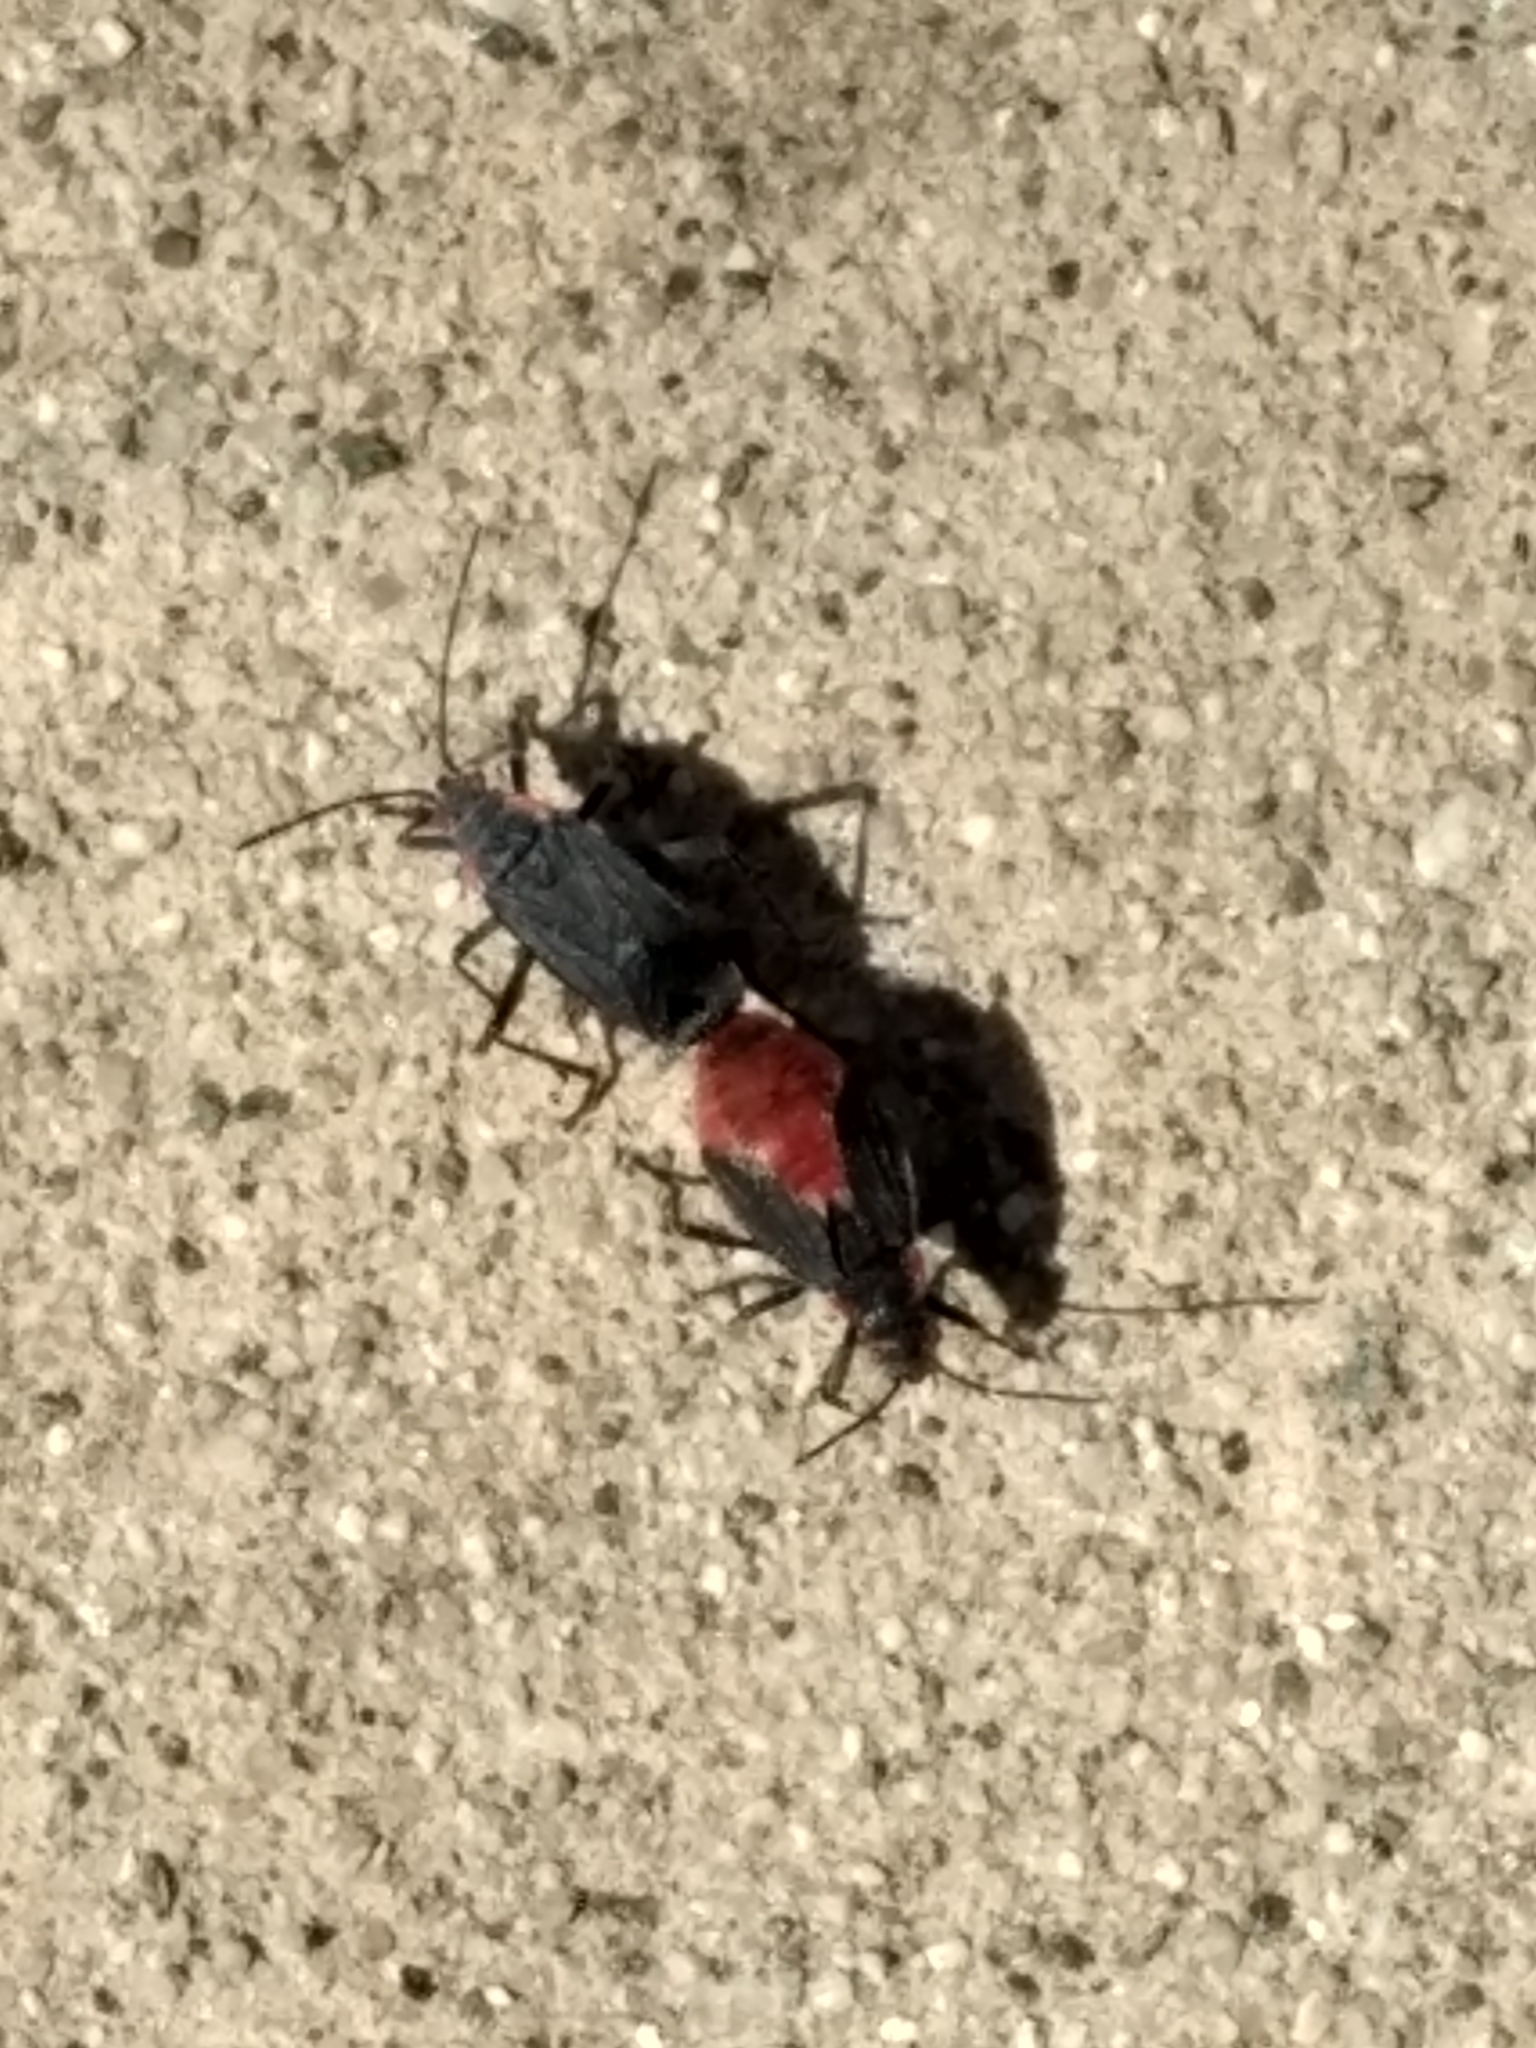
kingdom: Animalia
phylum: Arthropoda
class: Insecta
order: Hemiptera
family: Rhopalidae
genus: Jadera
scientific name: Jadera haematoloma
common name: Red-shouldered bug
